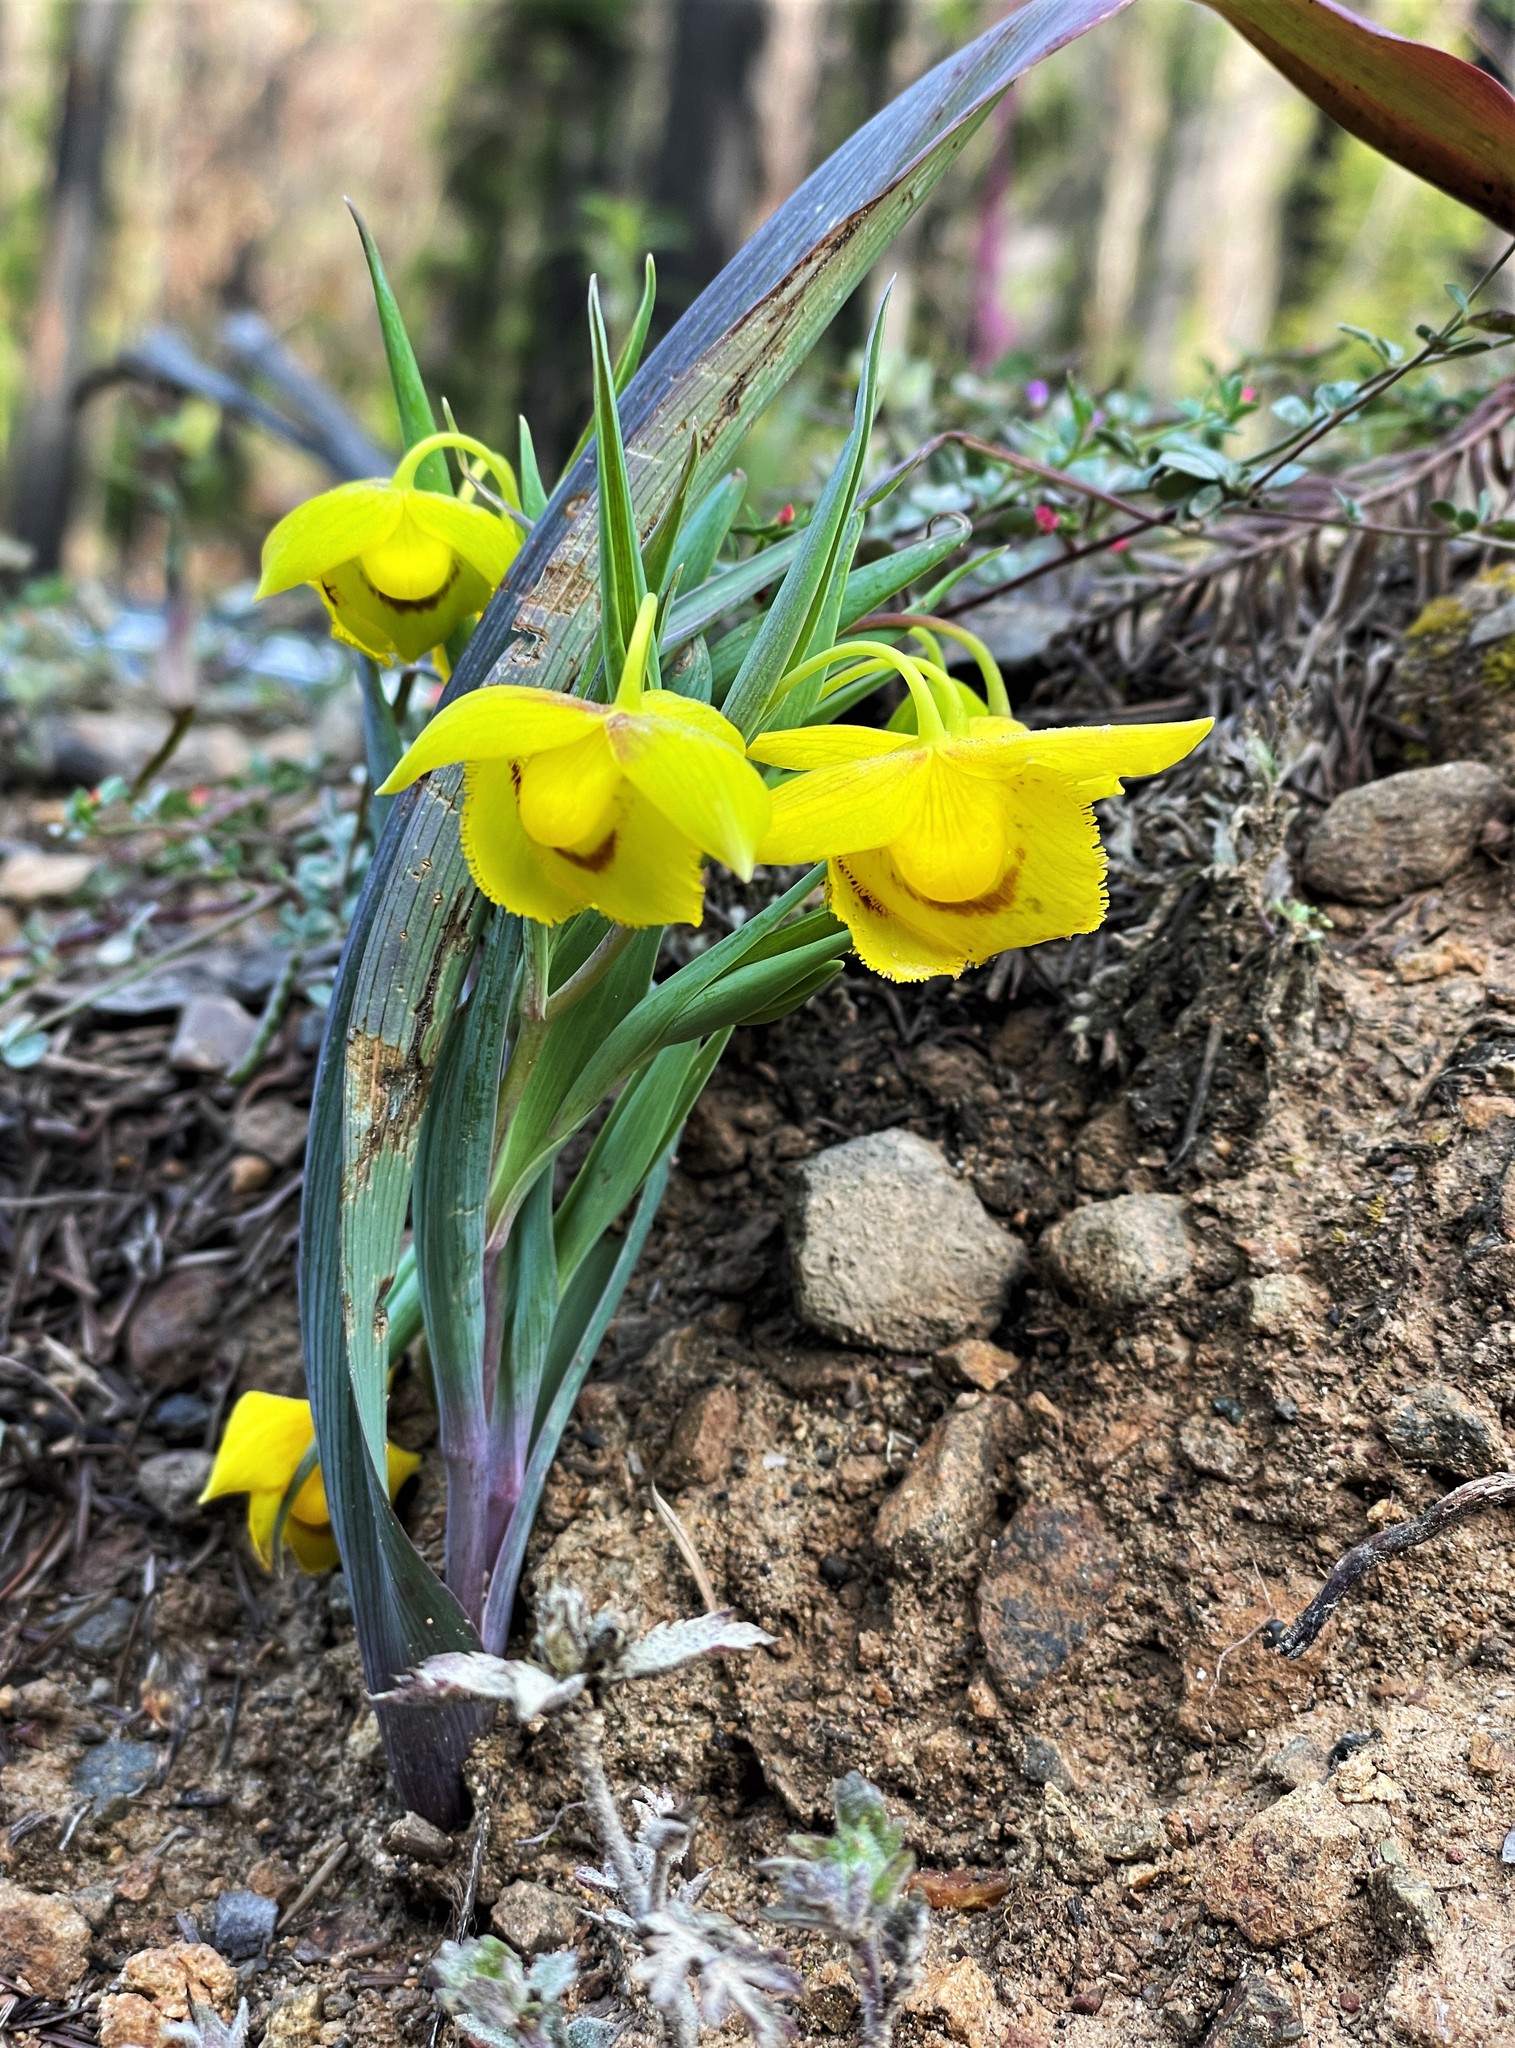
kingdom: Plantae
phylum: Tracheophyta
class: Liliopsida
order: Liliales
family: Liliaceae
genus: Calochortus
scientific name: Calochortus amabilis
